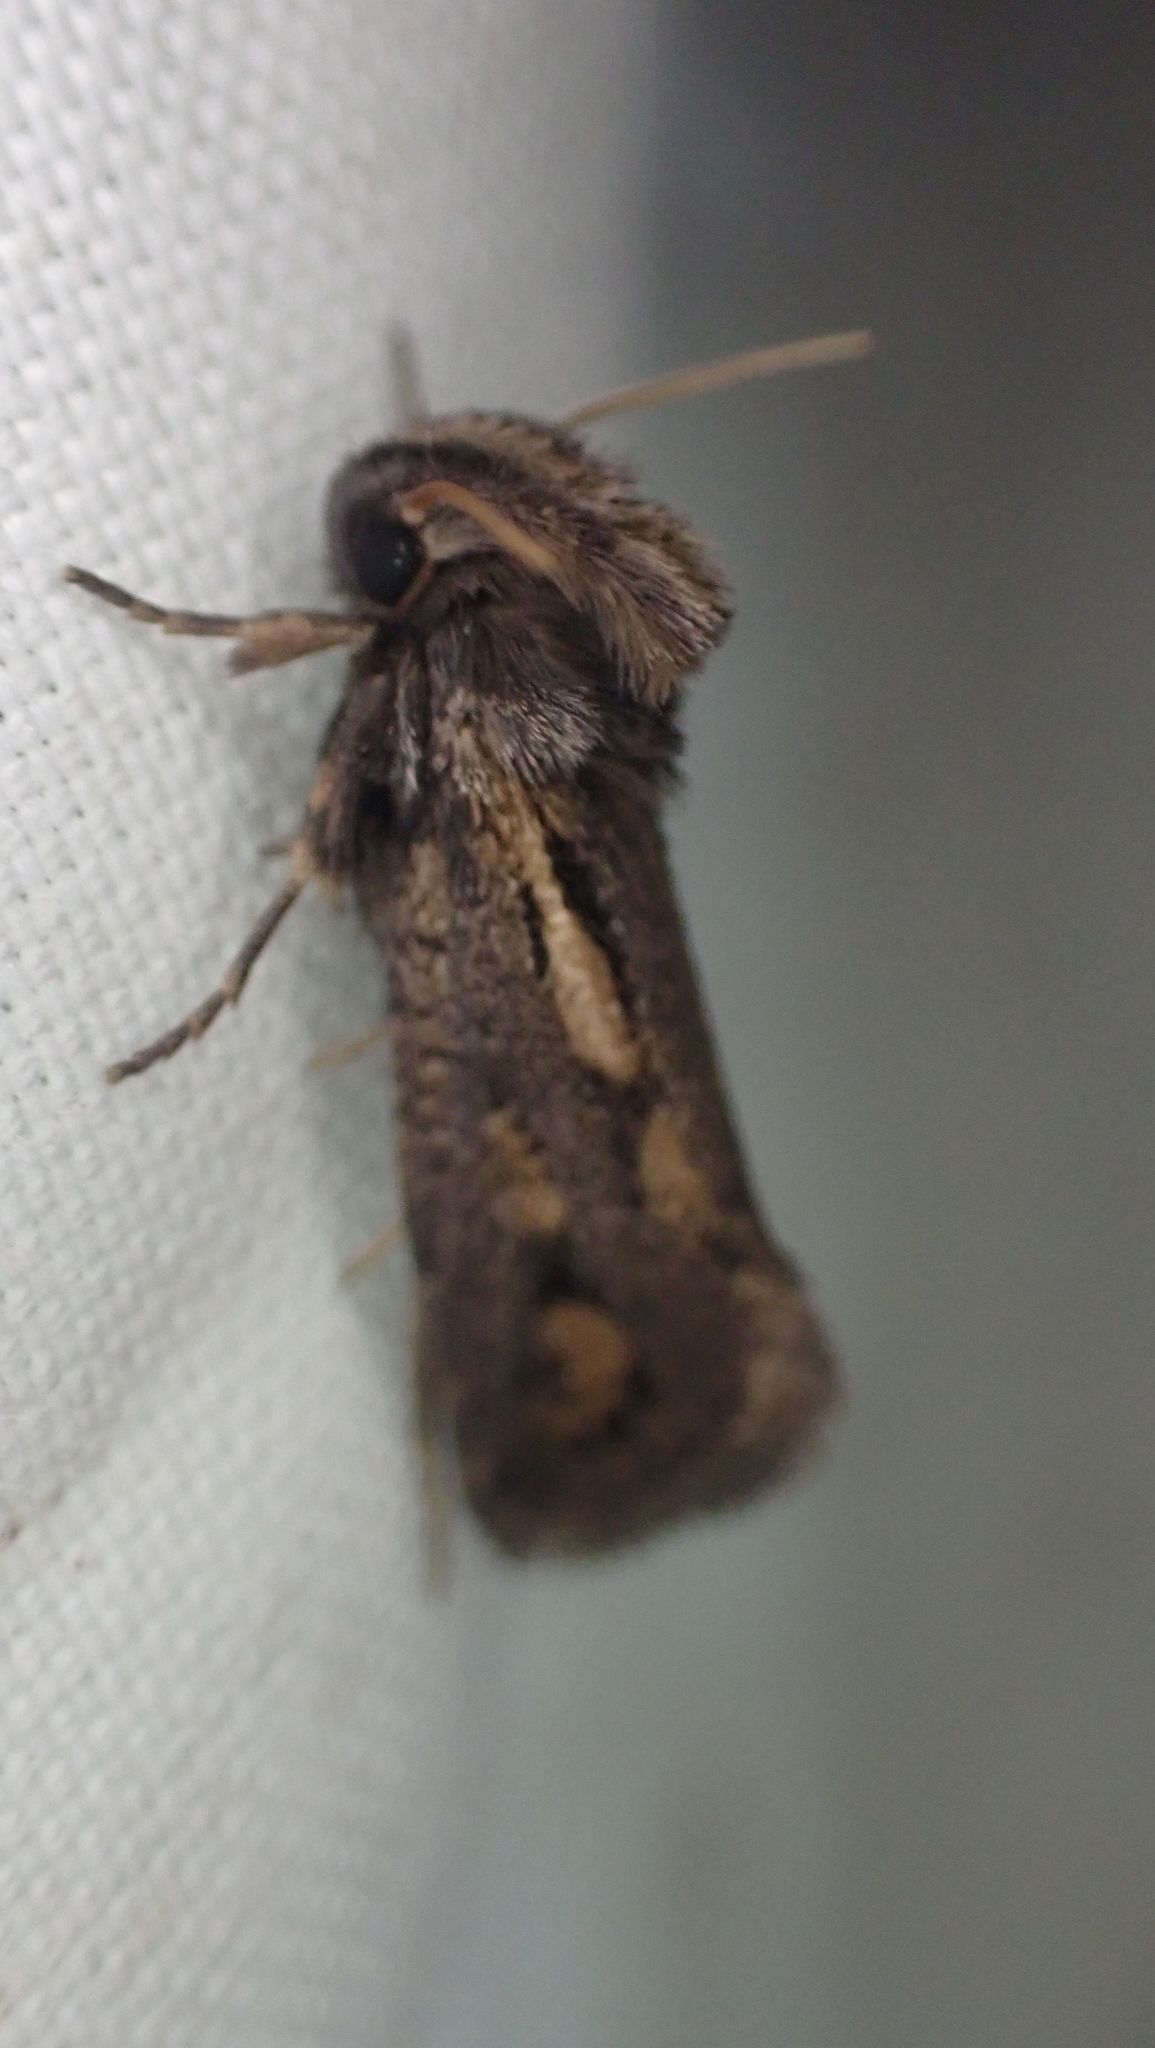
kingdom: Animalia
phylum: Arthropoda
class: Insecta
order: Lepidoptera
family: Tineidae
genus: Acrolophus
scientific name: Acrolophus popeanella
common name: Clemens' grass tubeworm moth
